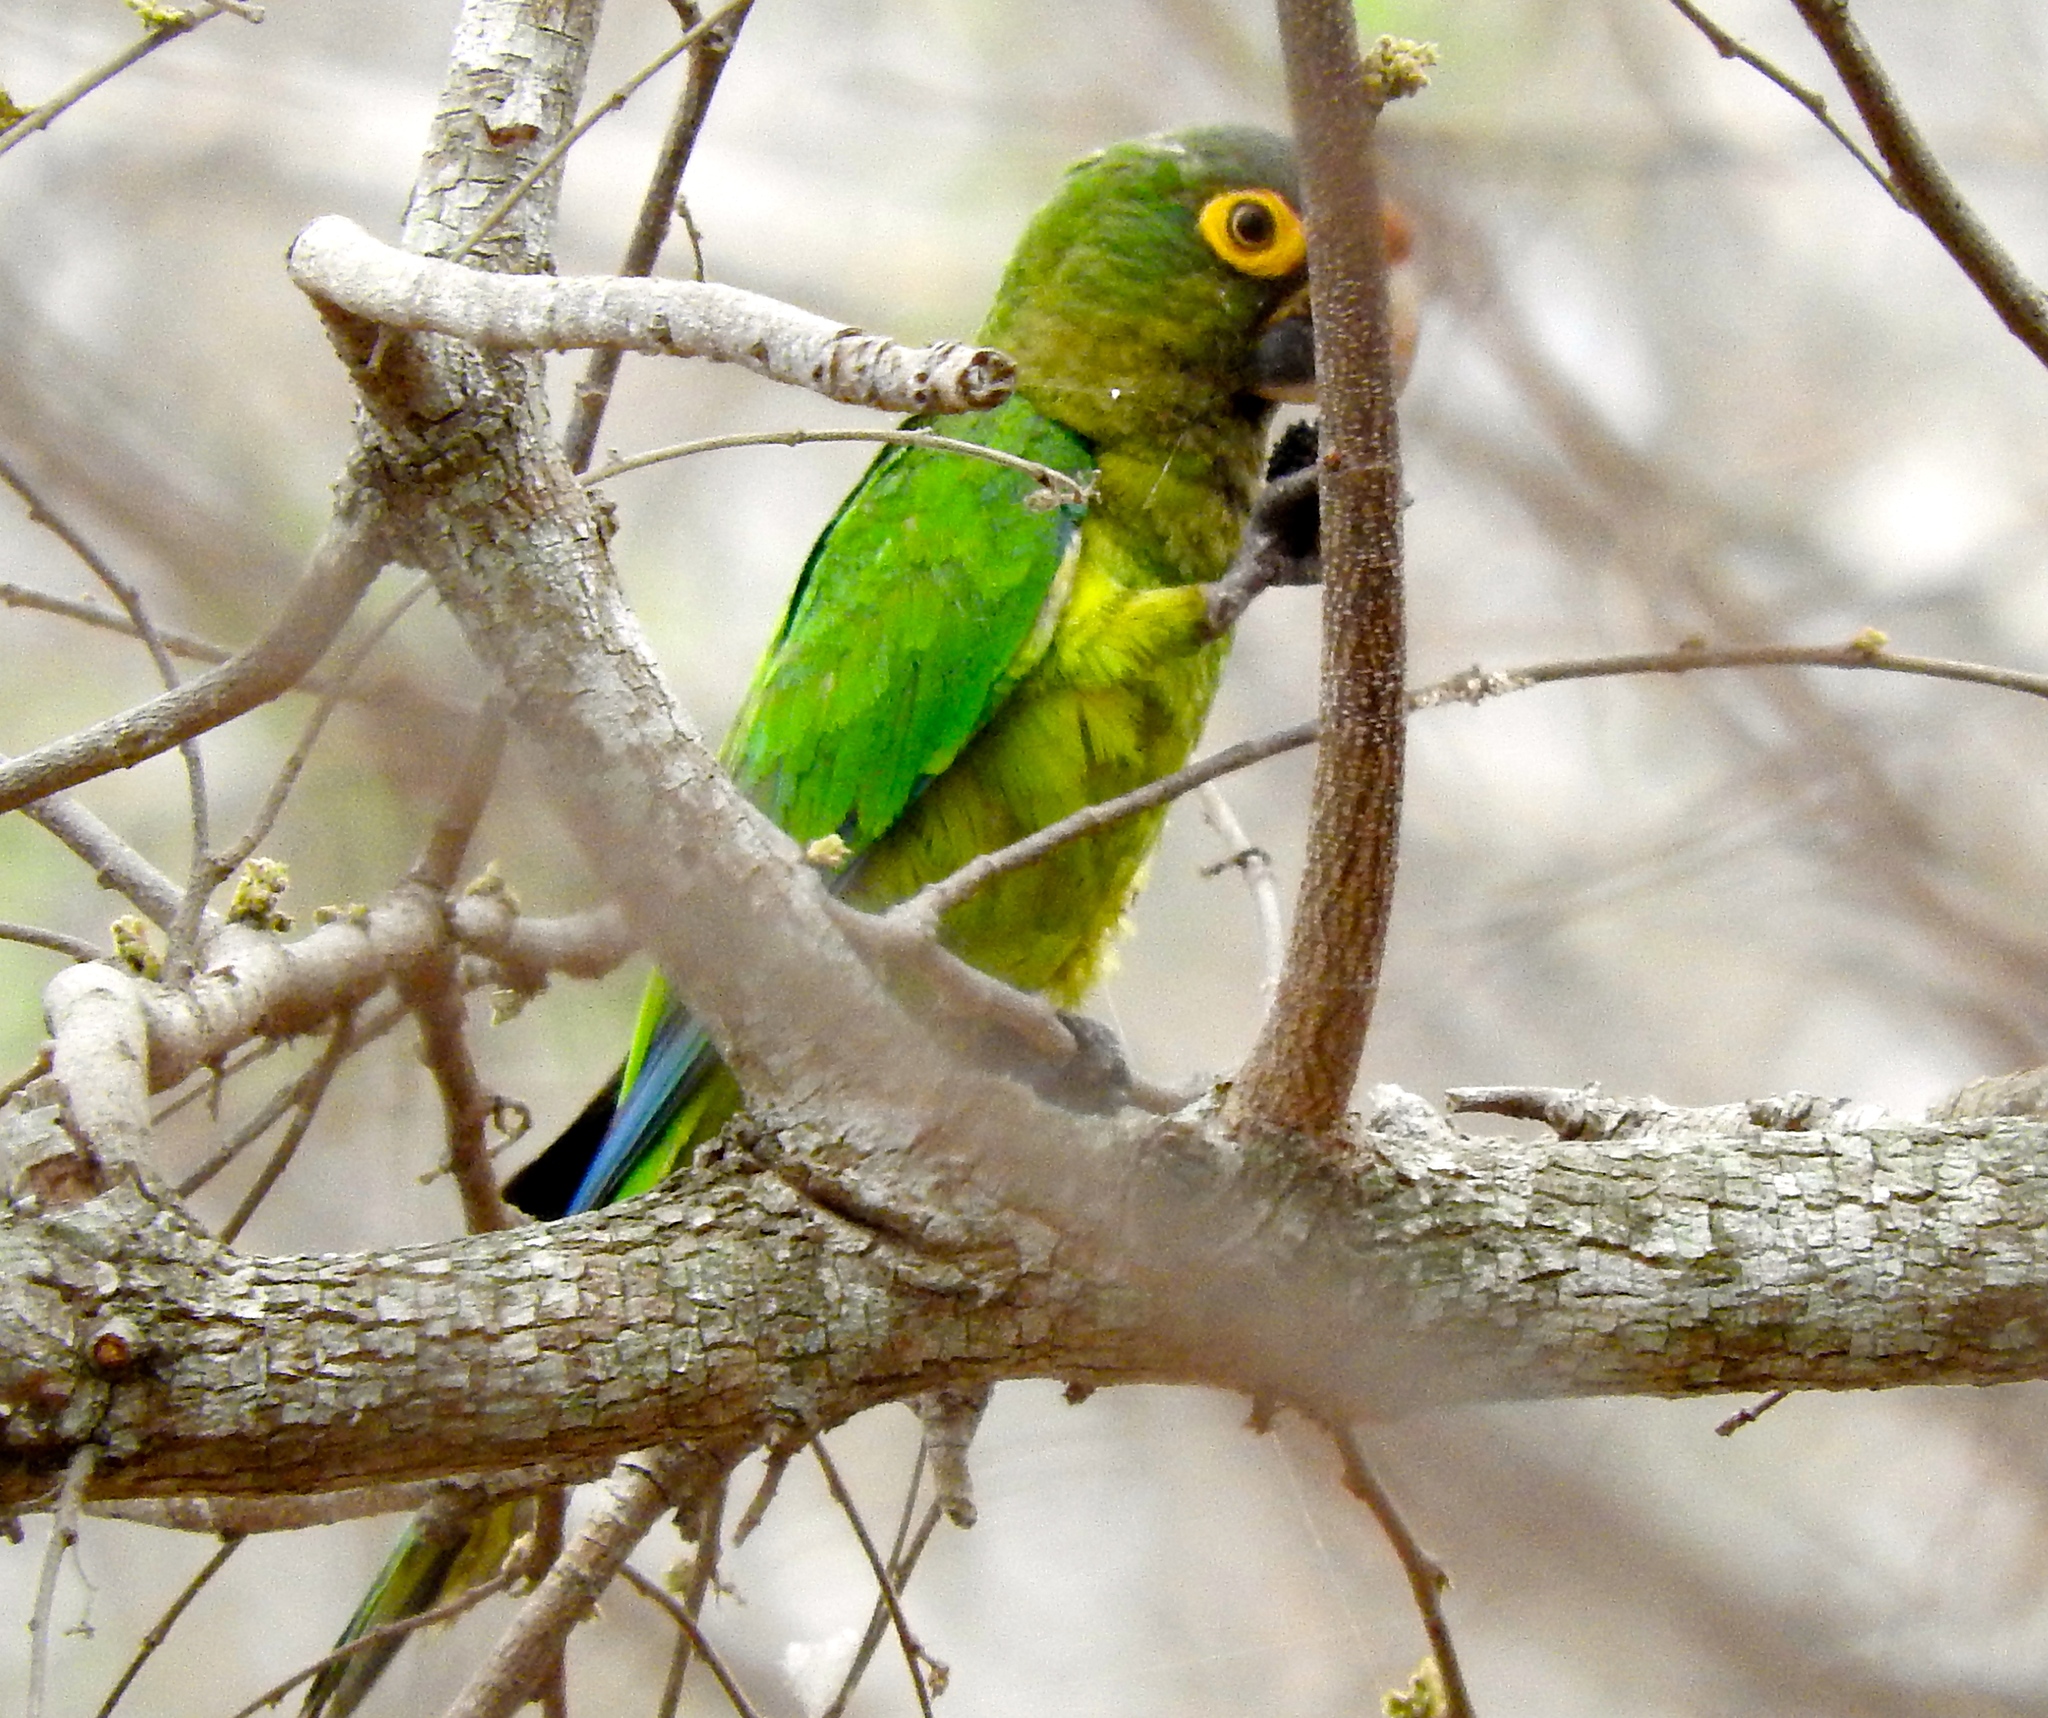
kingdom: Animalia
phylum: Chordata
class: Aves
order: Psittaciformes
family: Psittacidae
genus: Aratinga
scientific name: Aratinga canicularis
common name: Orange-fronted parakeet
